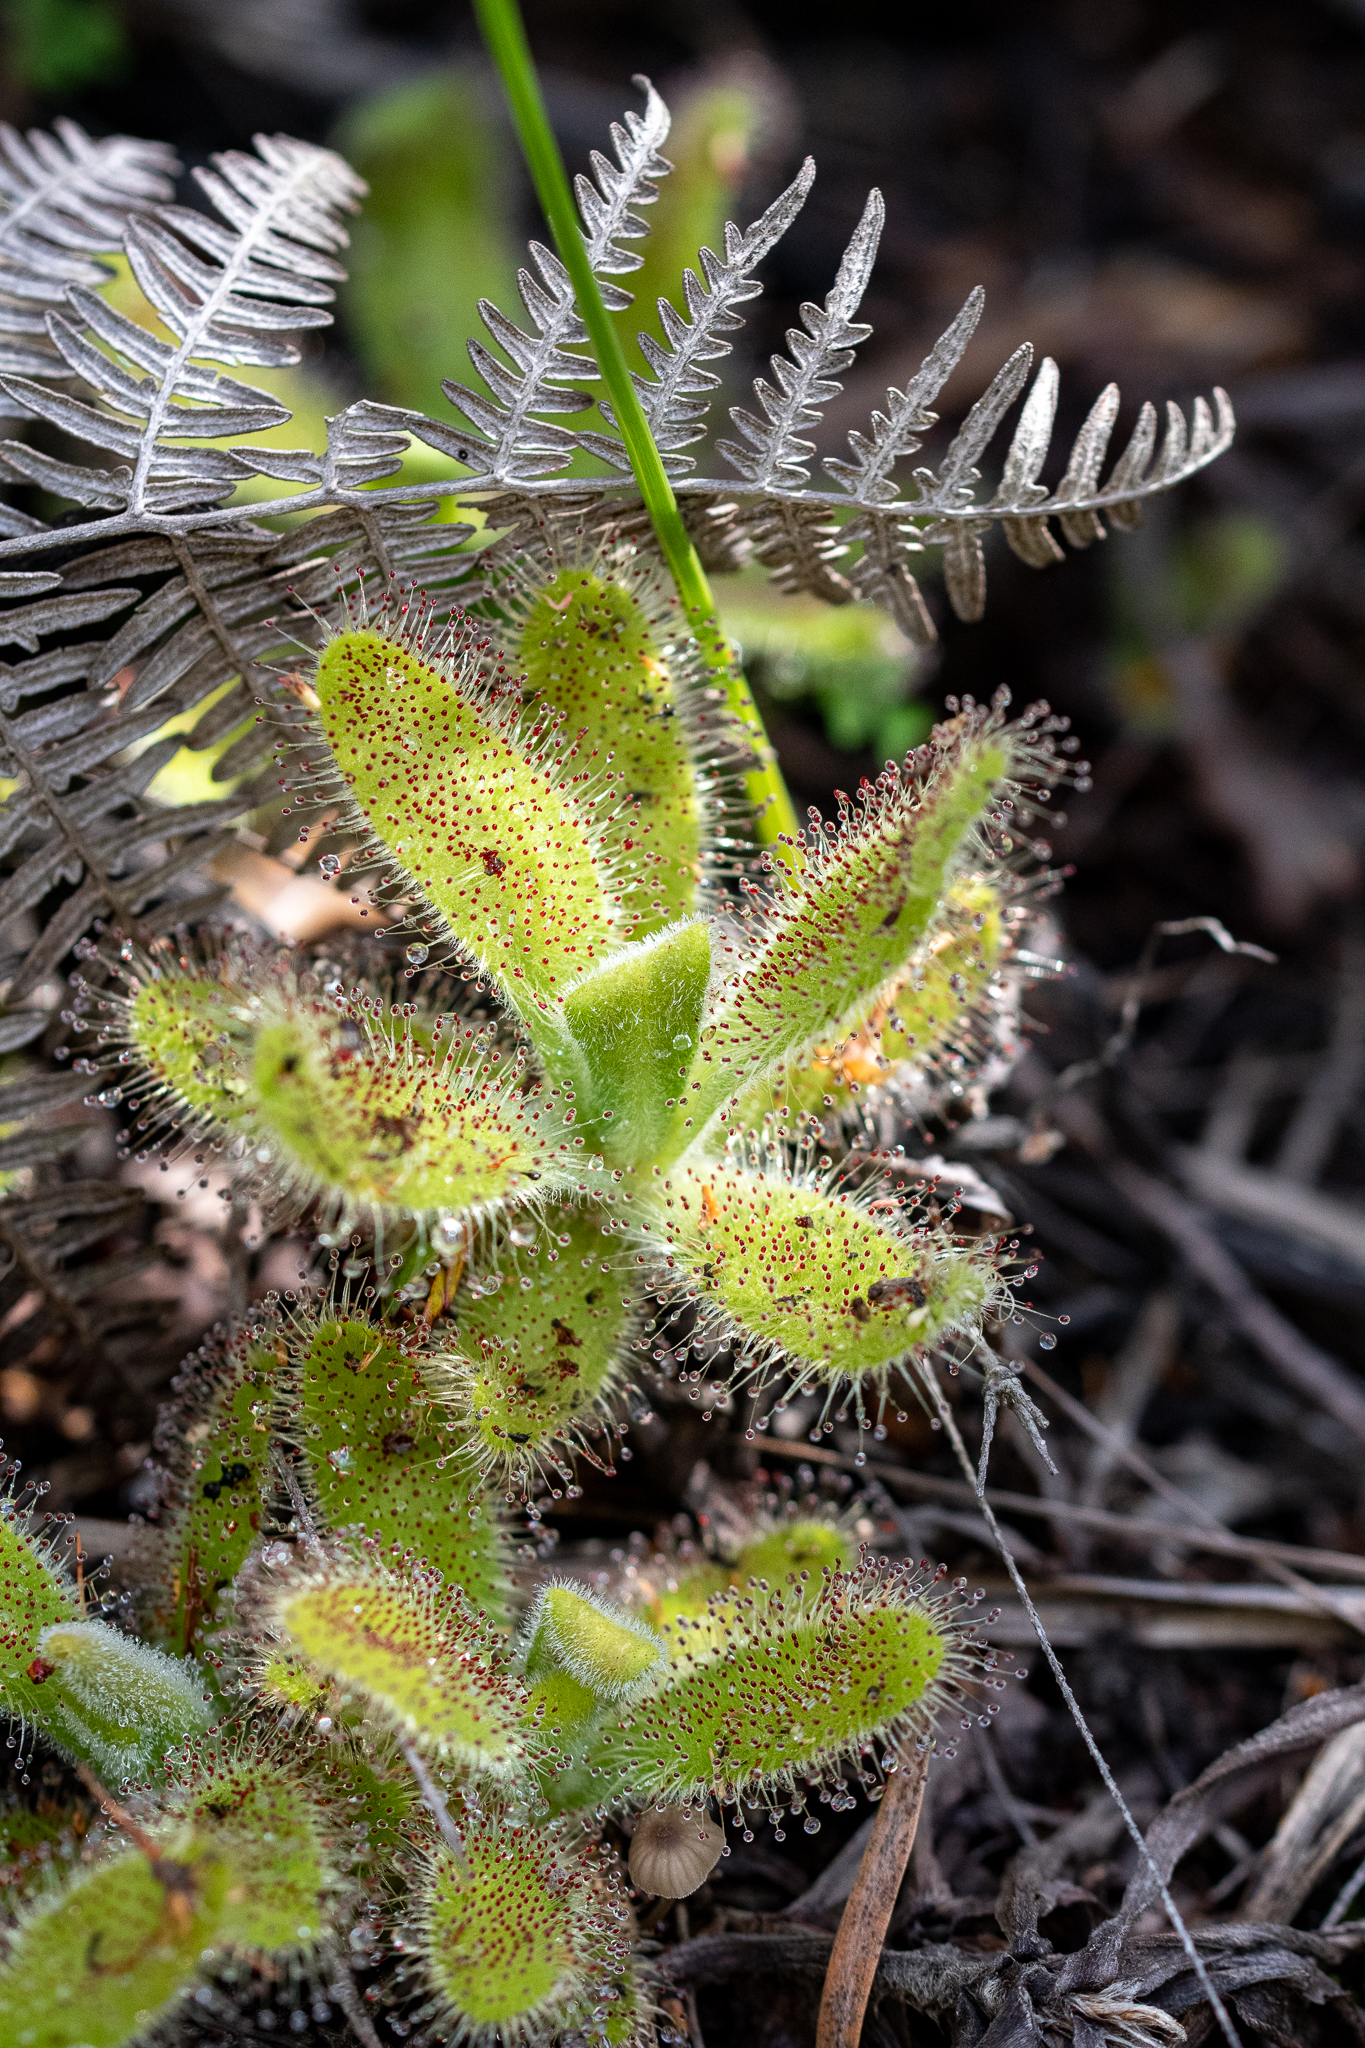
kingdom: Plantae
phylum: Tracheophyta
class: Magnoliopsida
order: Caryophyllales
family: Droseraceae
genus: Drosera
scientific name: Drosera hilaris
